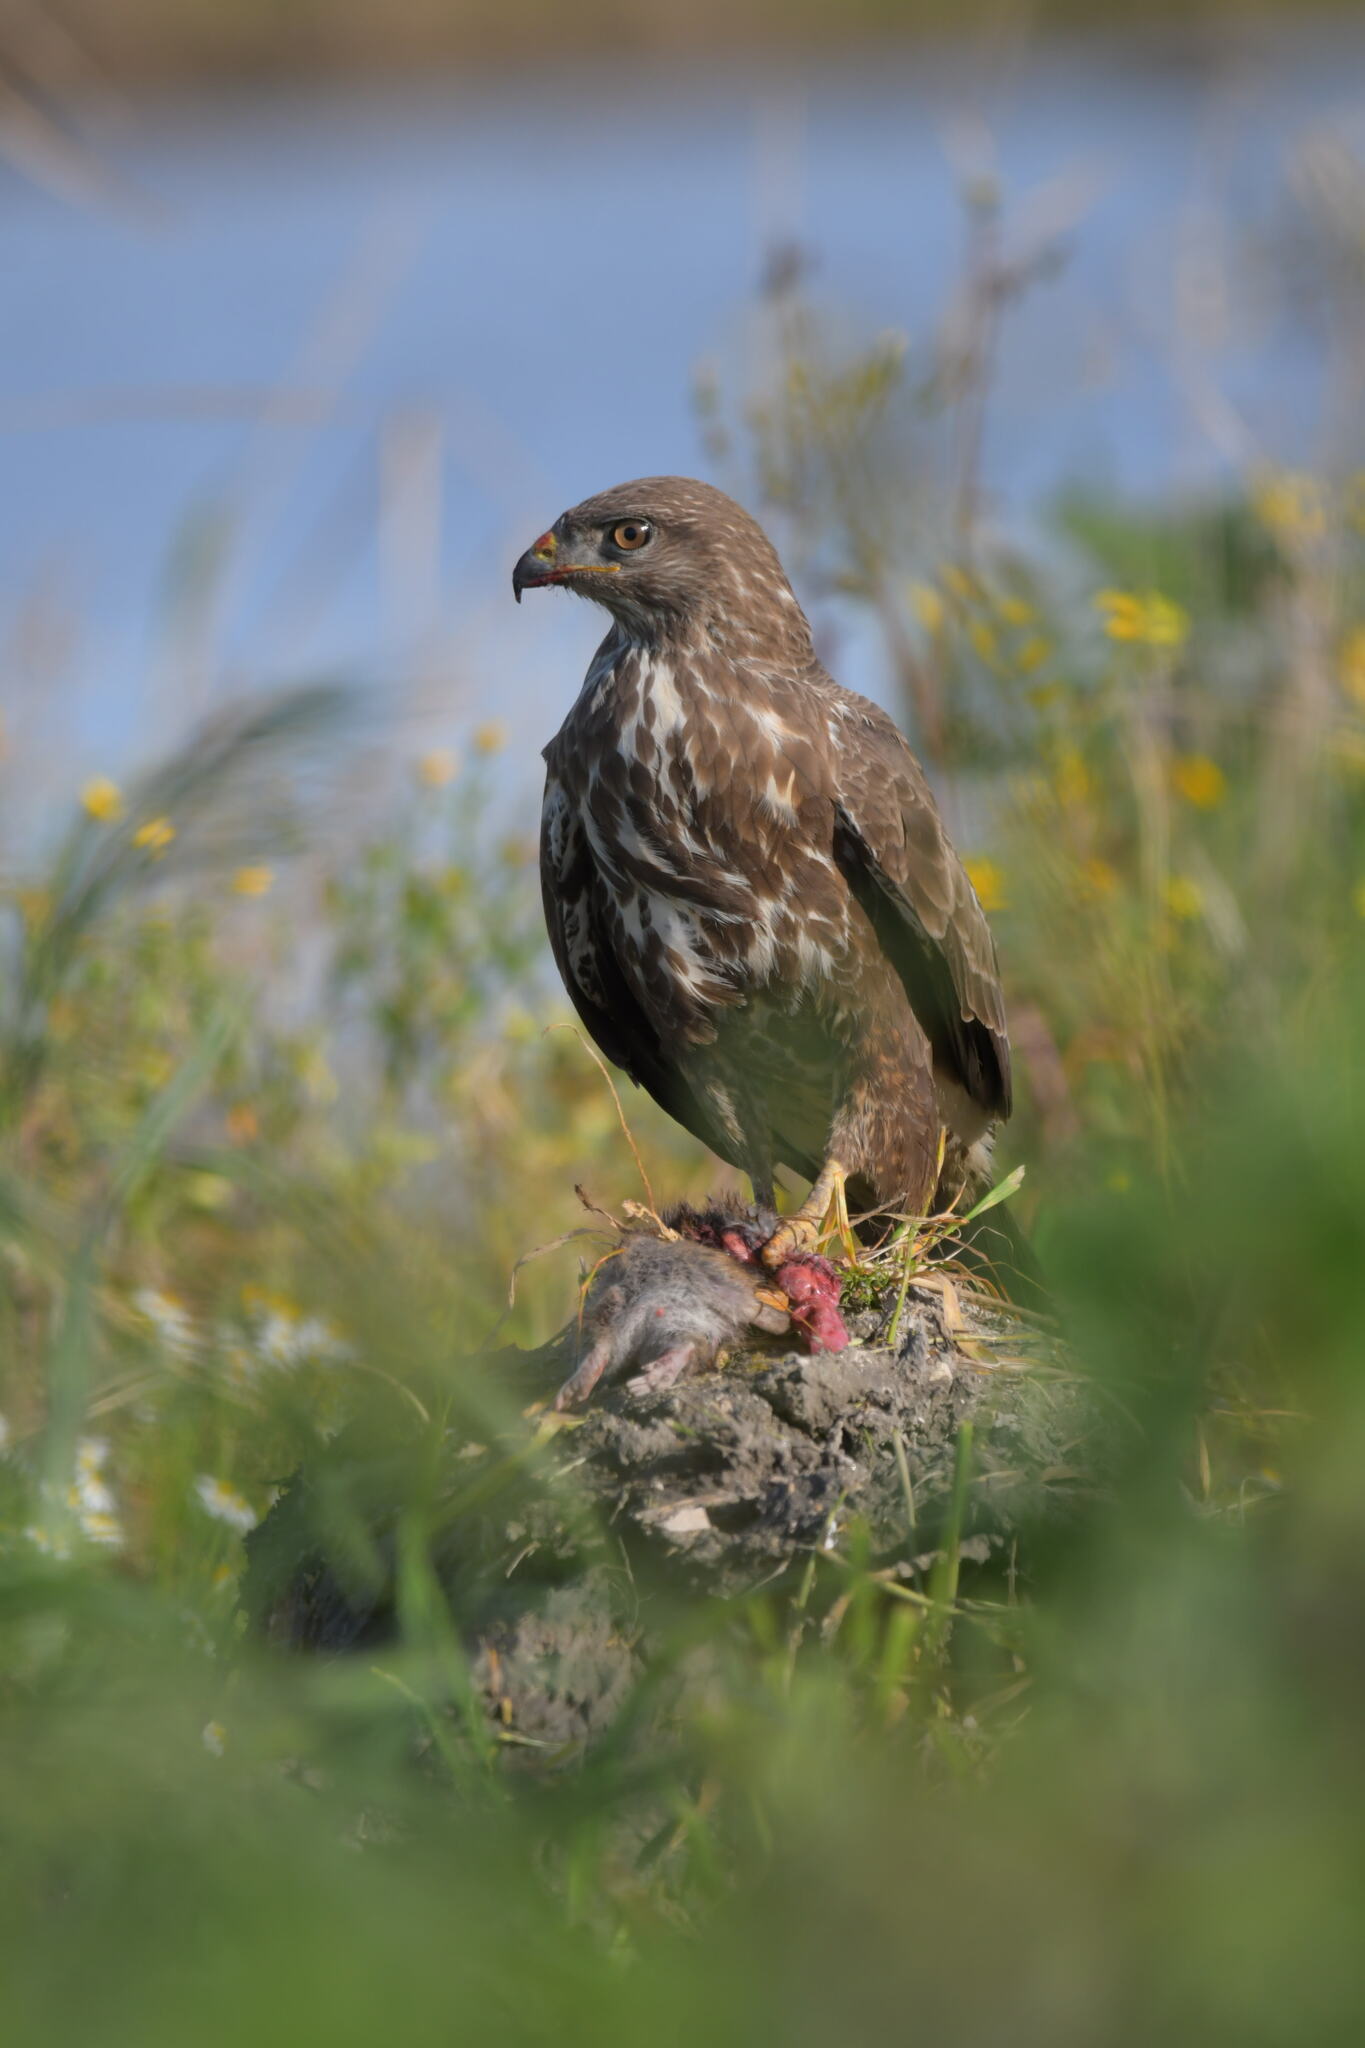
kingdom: Animalia
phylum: Chordata
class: Aves
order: Accipitriformes
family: Accipitridae
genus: Buteo
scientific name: Buteo buteo
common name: Common buzzard
